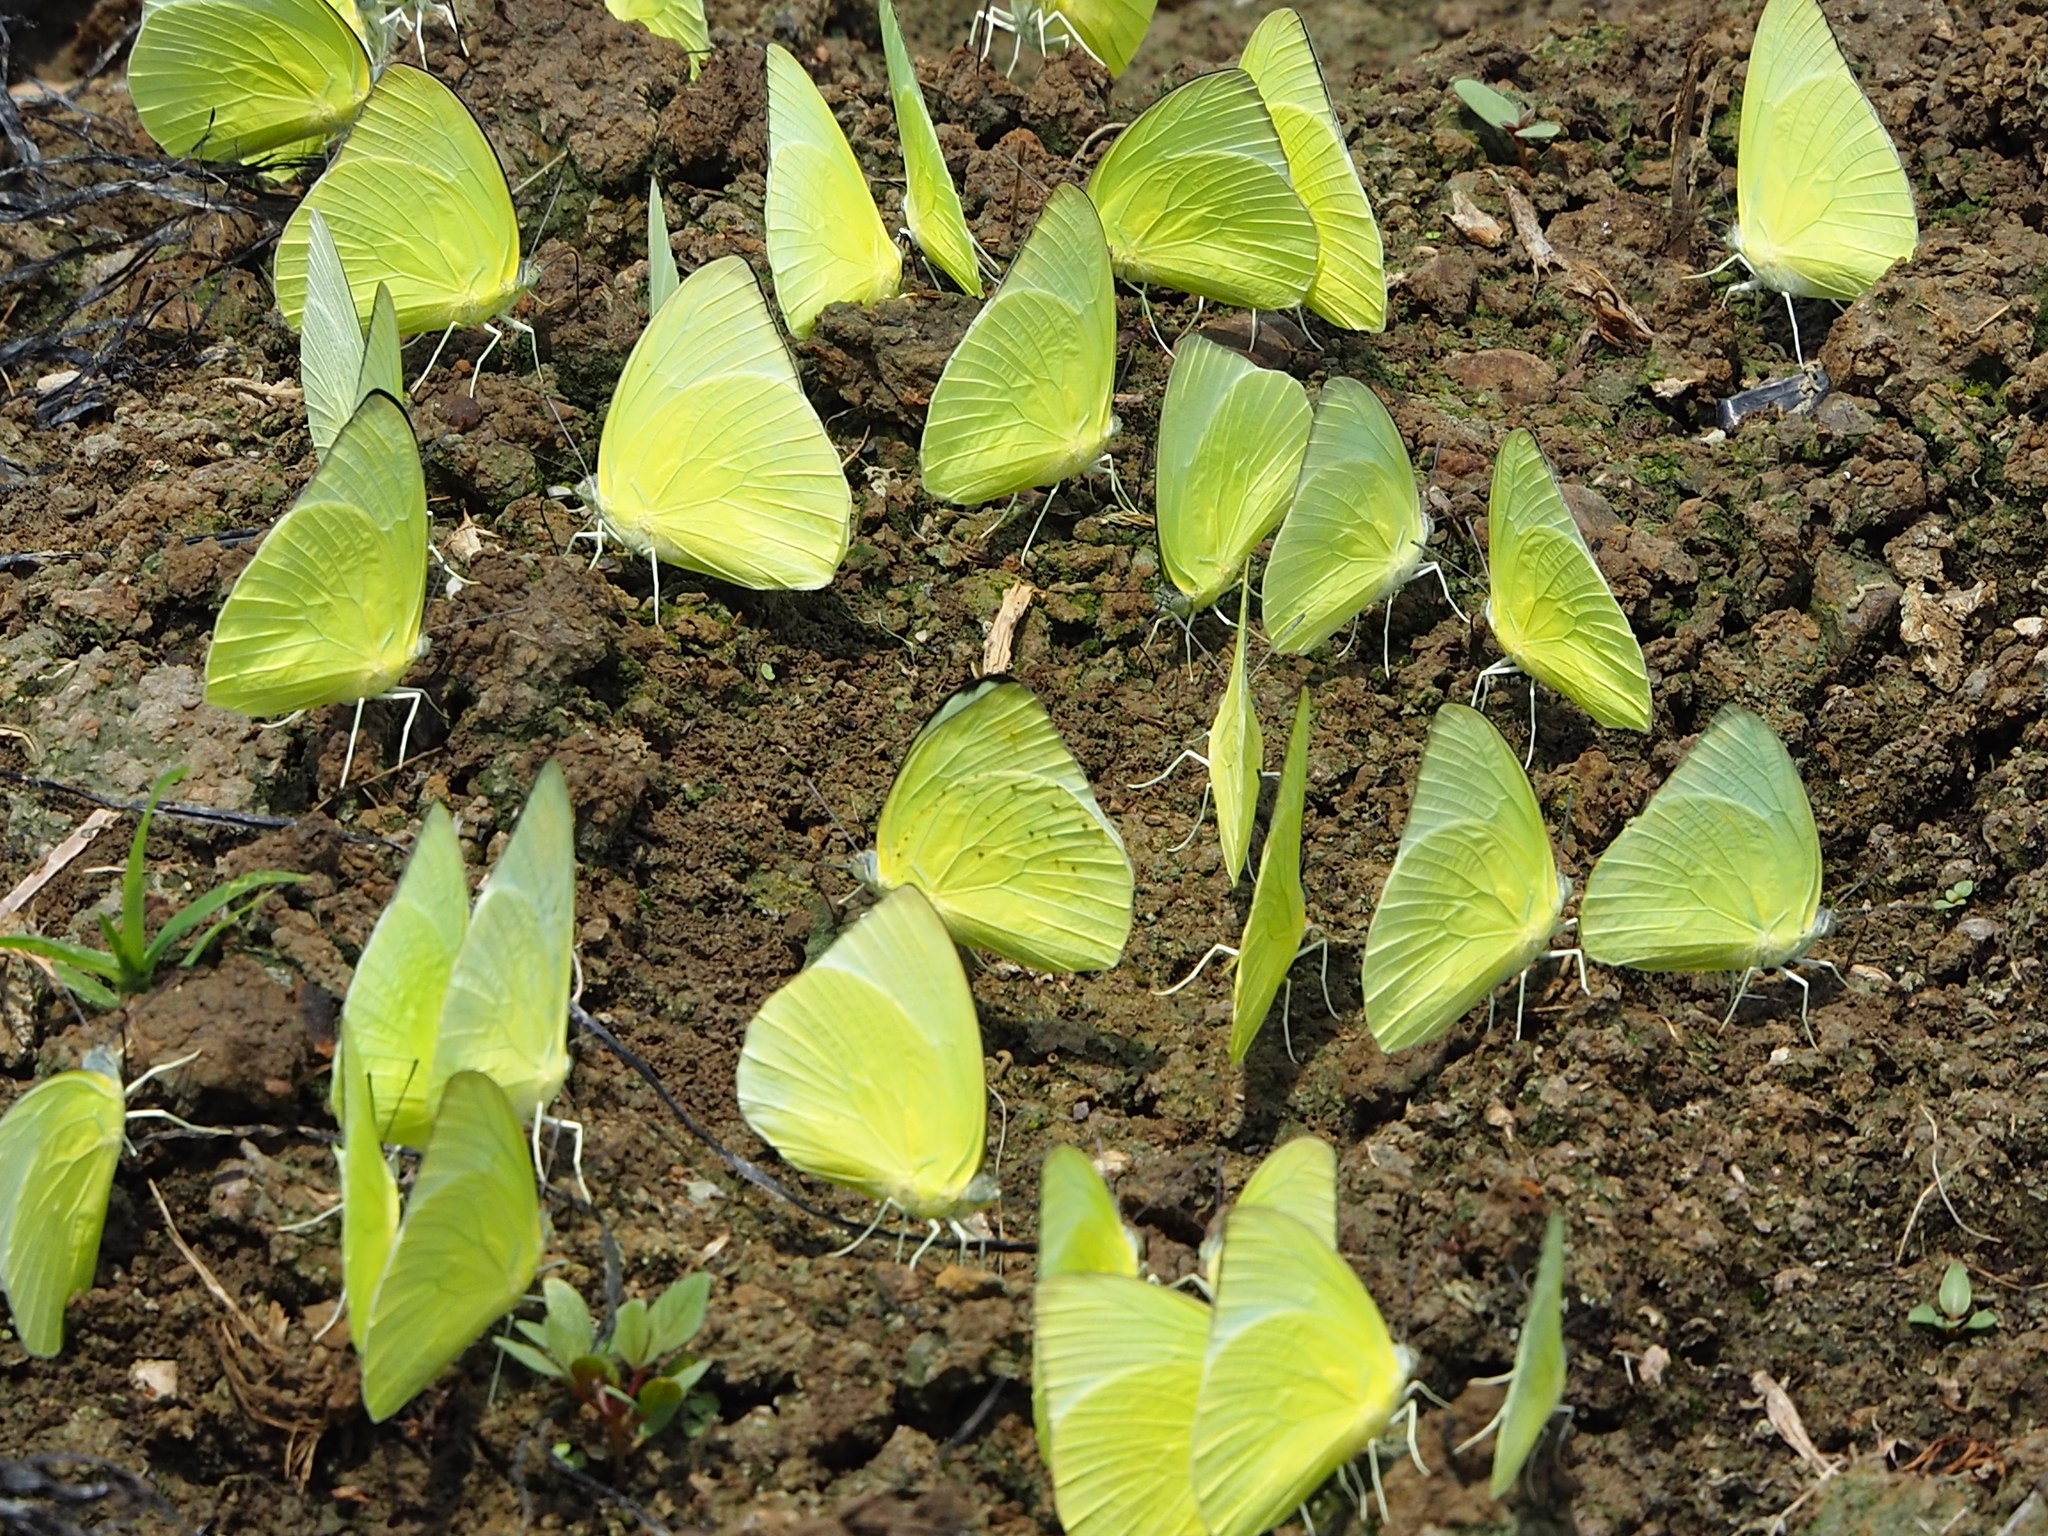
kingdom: Animalia
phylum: Arthropoda
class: Insecta
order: Lepidoptera
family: Pieridae
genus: Catopsilia
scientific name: Catopsilia pomona
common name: Common emigrant
